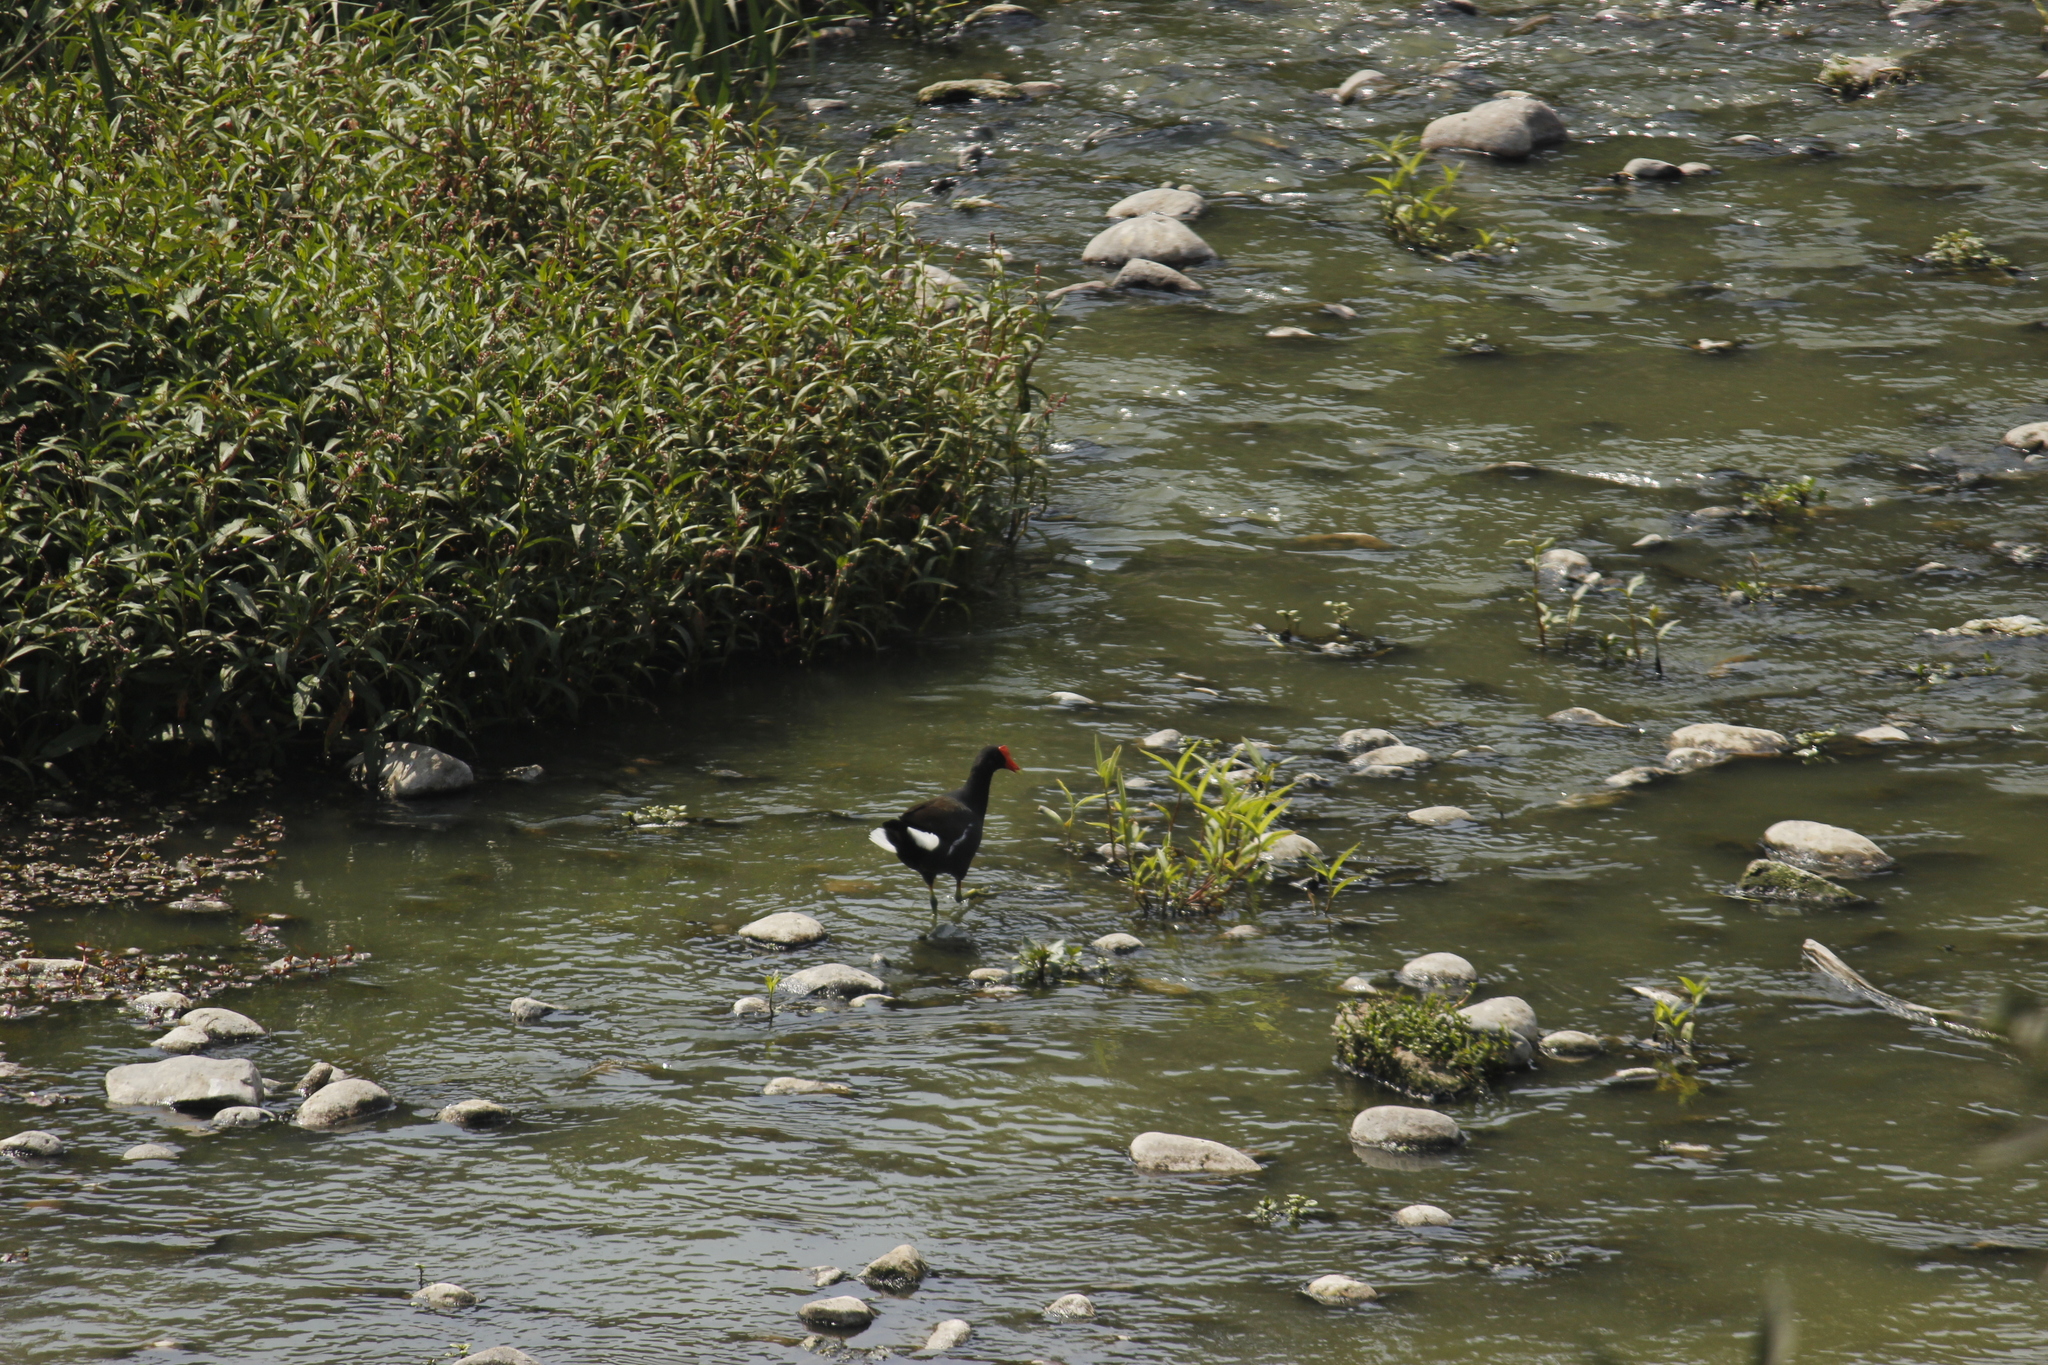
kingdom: Animalia
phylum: Chordata
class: Aves
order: Gruiformes
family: Rallidae
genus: Gallinula
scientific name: Gallinula chloropus
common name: Common moorhen
